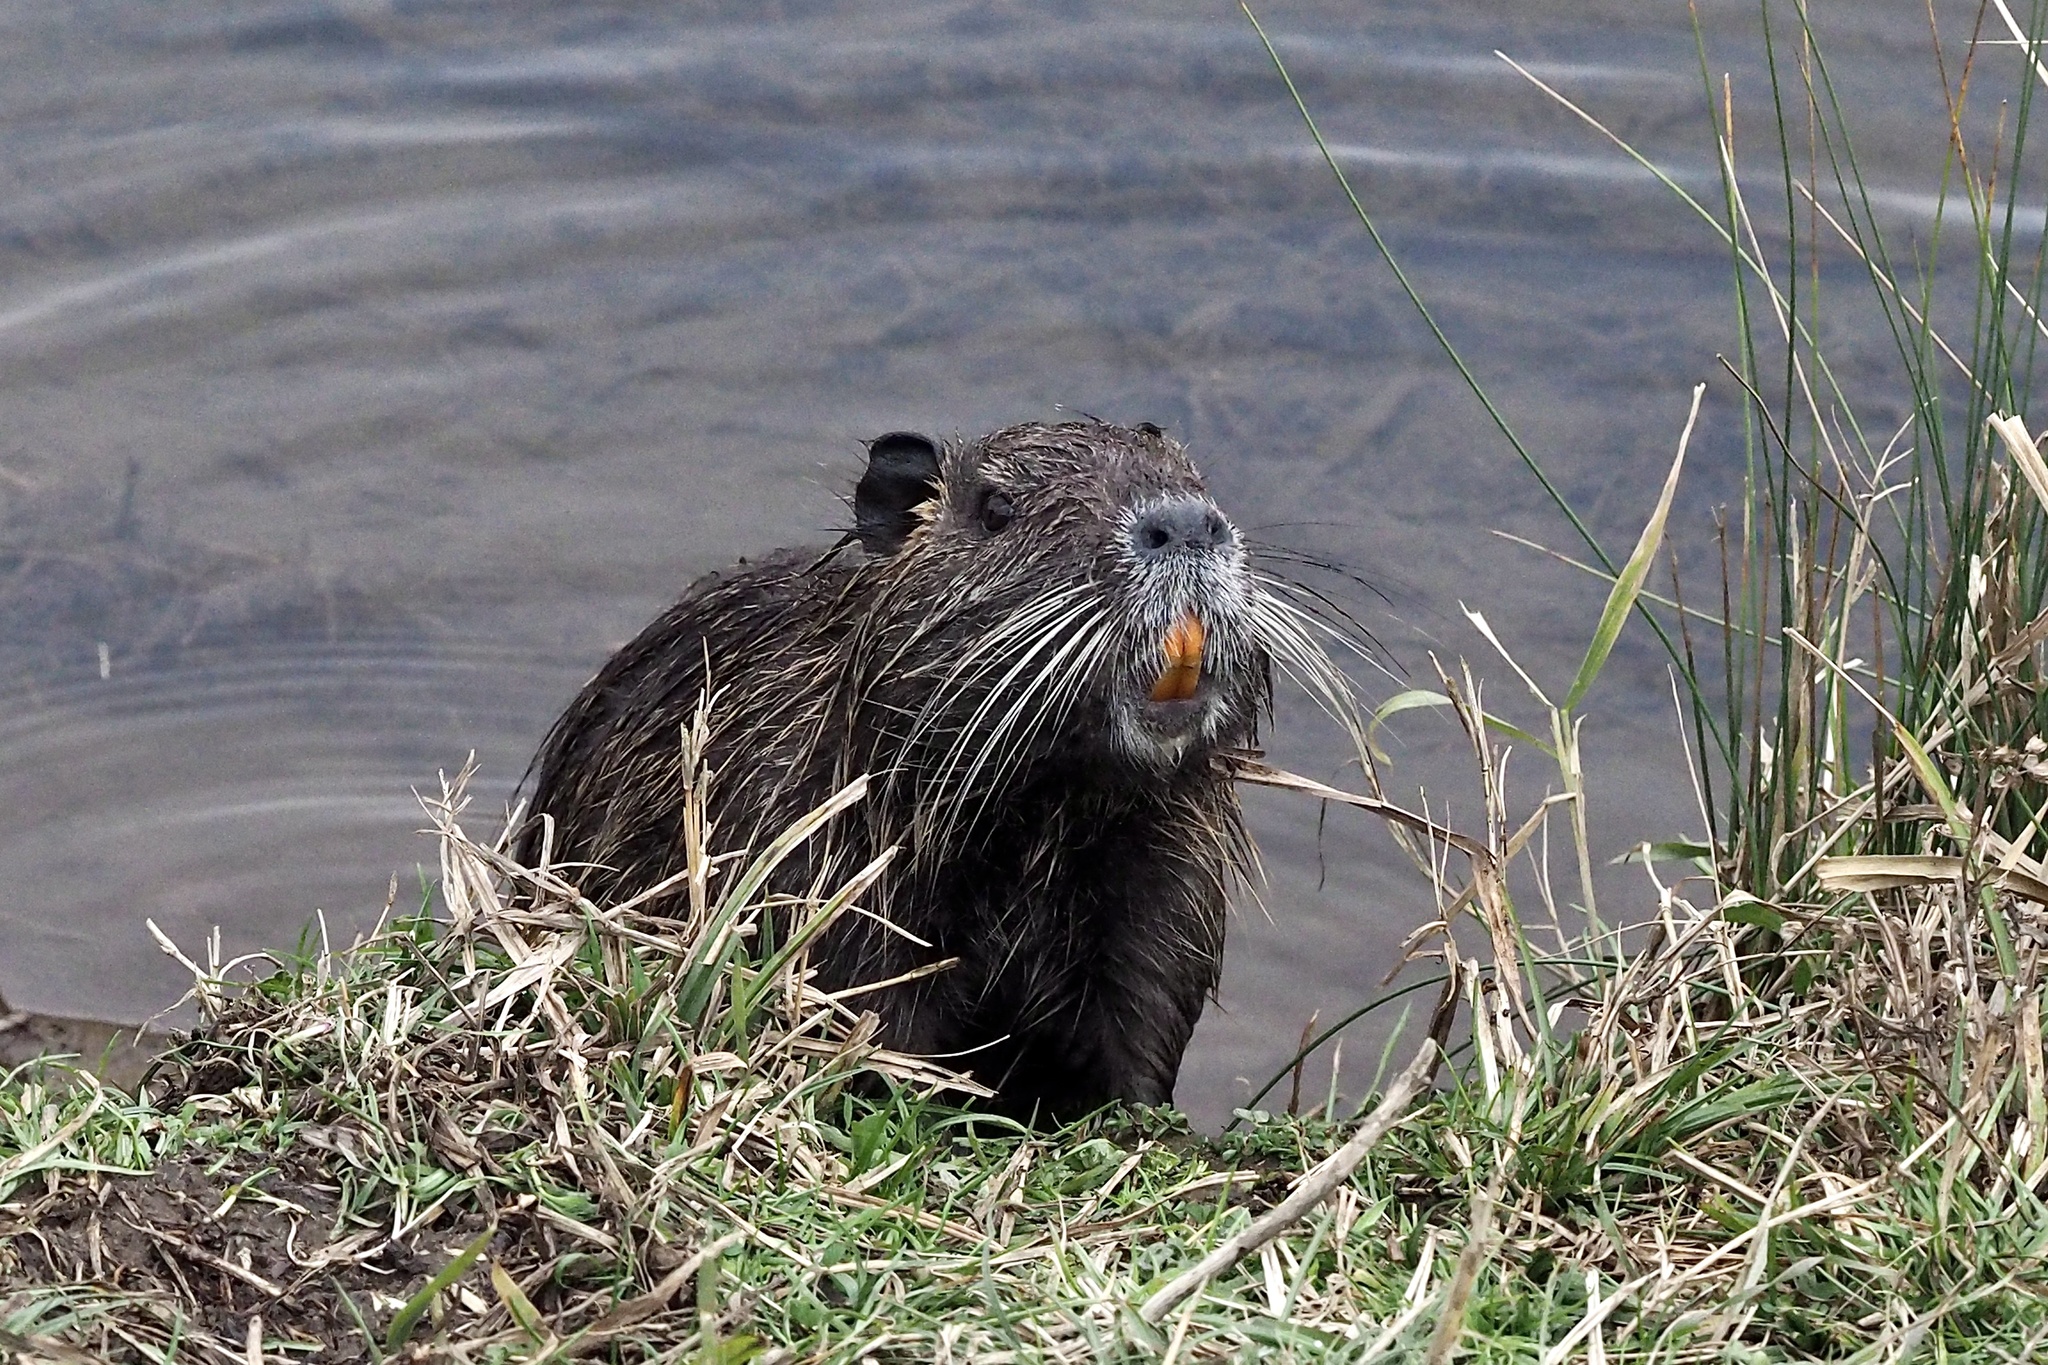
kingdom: Animalia
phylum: Chordata
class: Mammalia
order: Rodentia
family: Myocastoridae
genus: Myocastor
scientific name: Myocastor coypus
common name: Coypu
